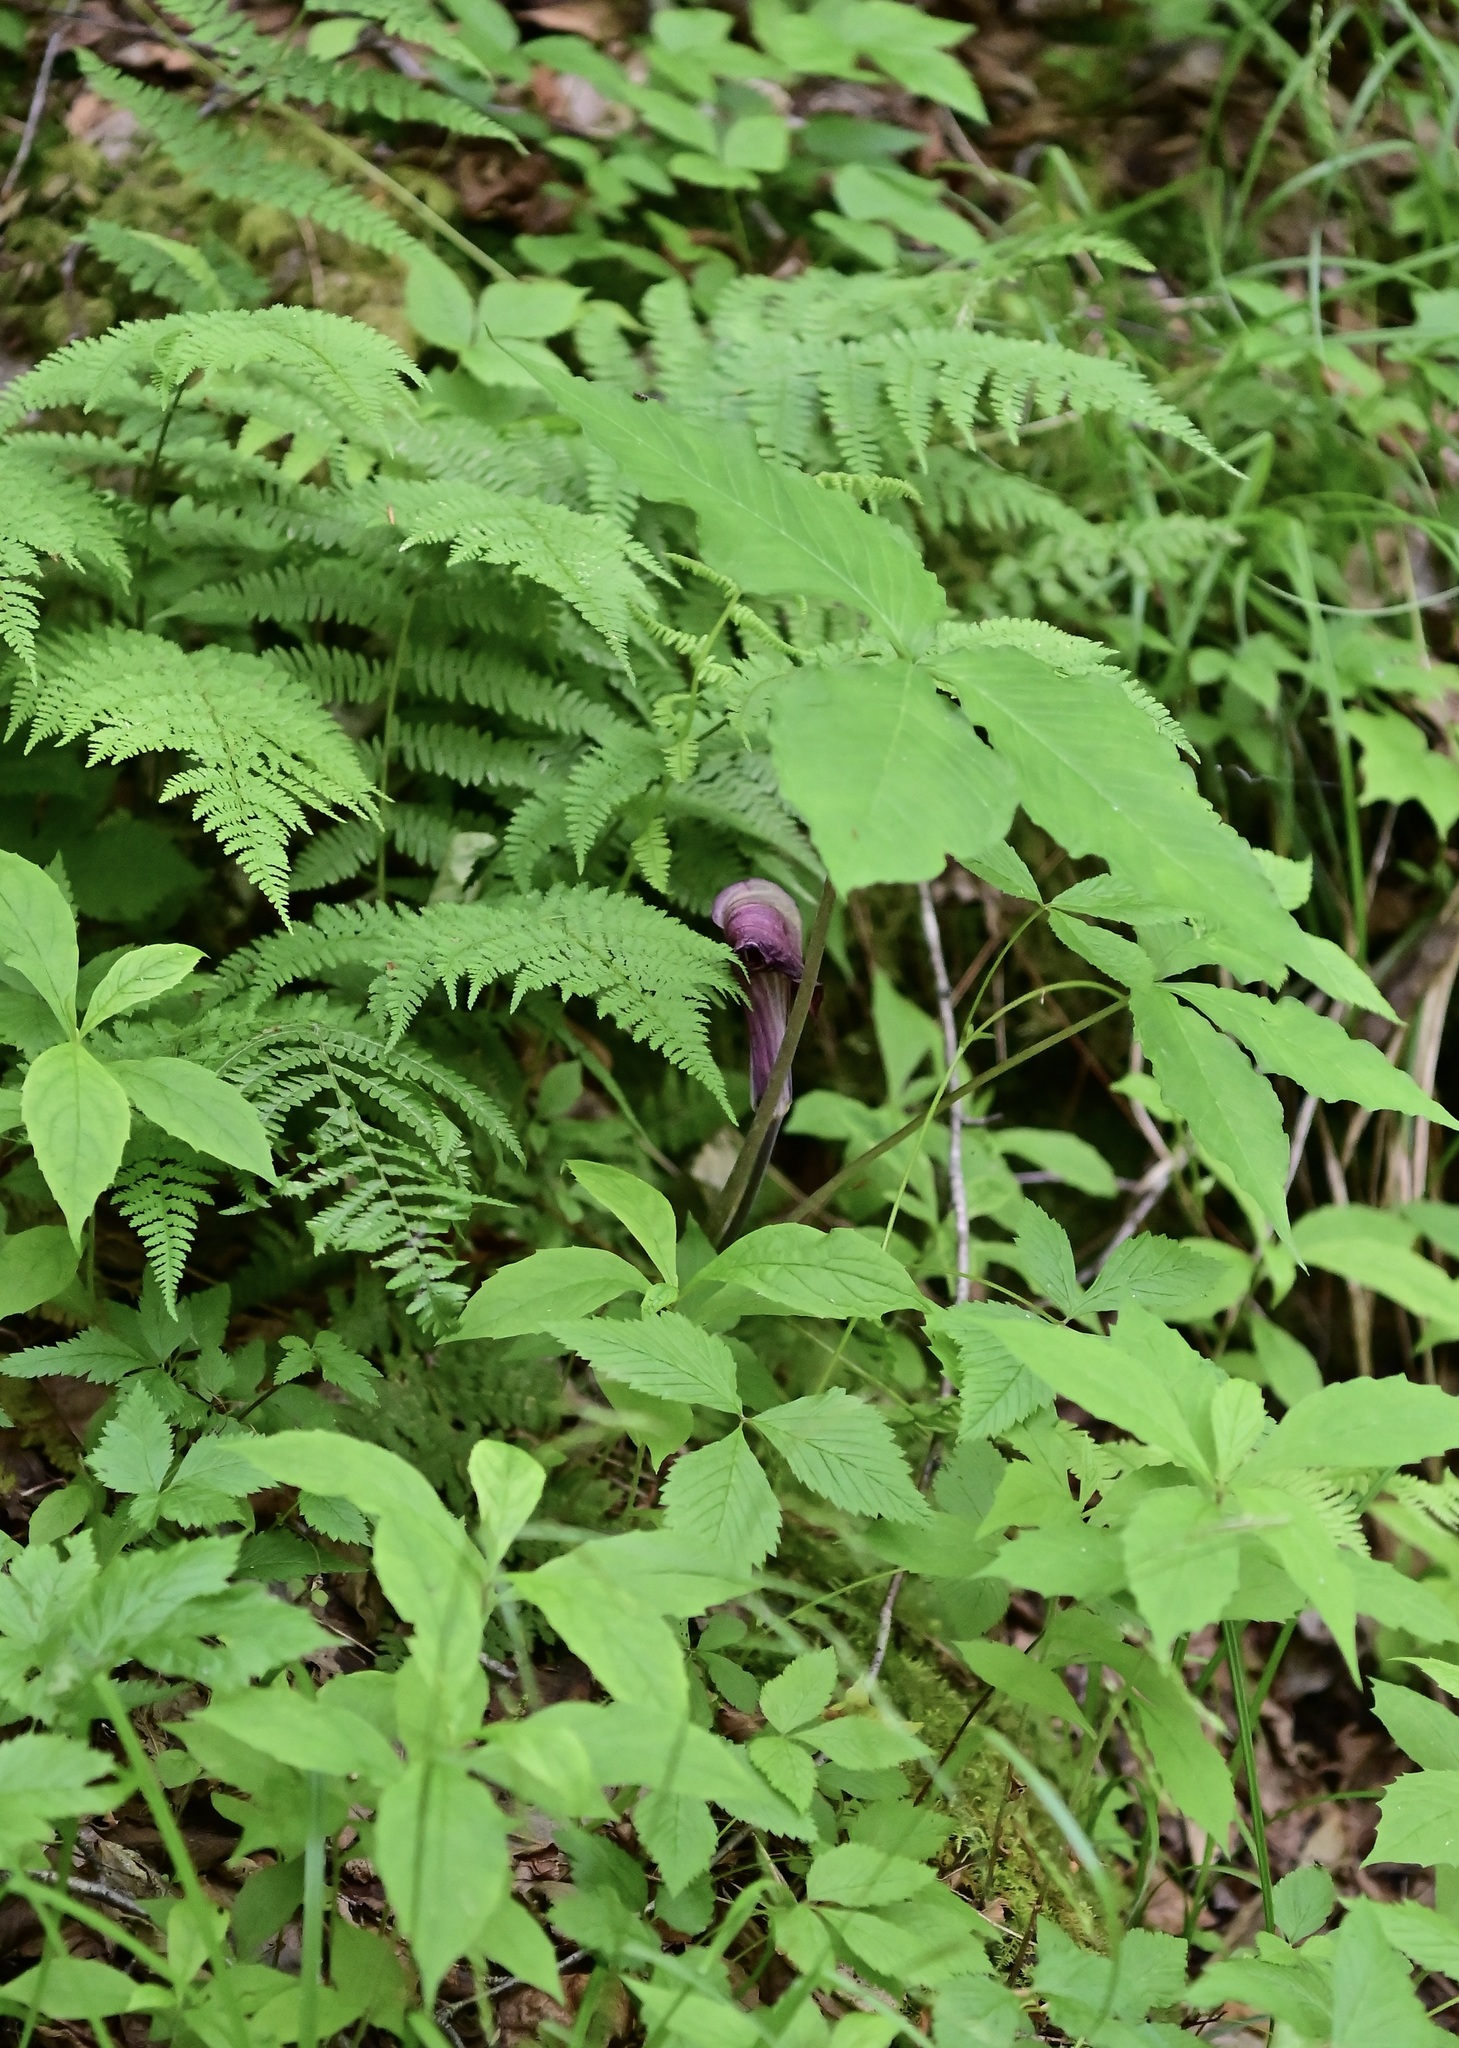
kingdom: Plantae
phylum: Tracheophyta
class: Liliopsida
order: Alismatales
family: Araceae
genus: Arisaema
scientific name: Arisaema triphyllum
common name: Jack-in-the-pulpit
